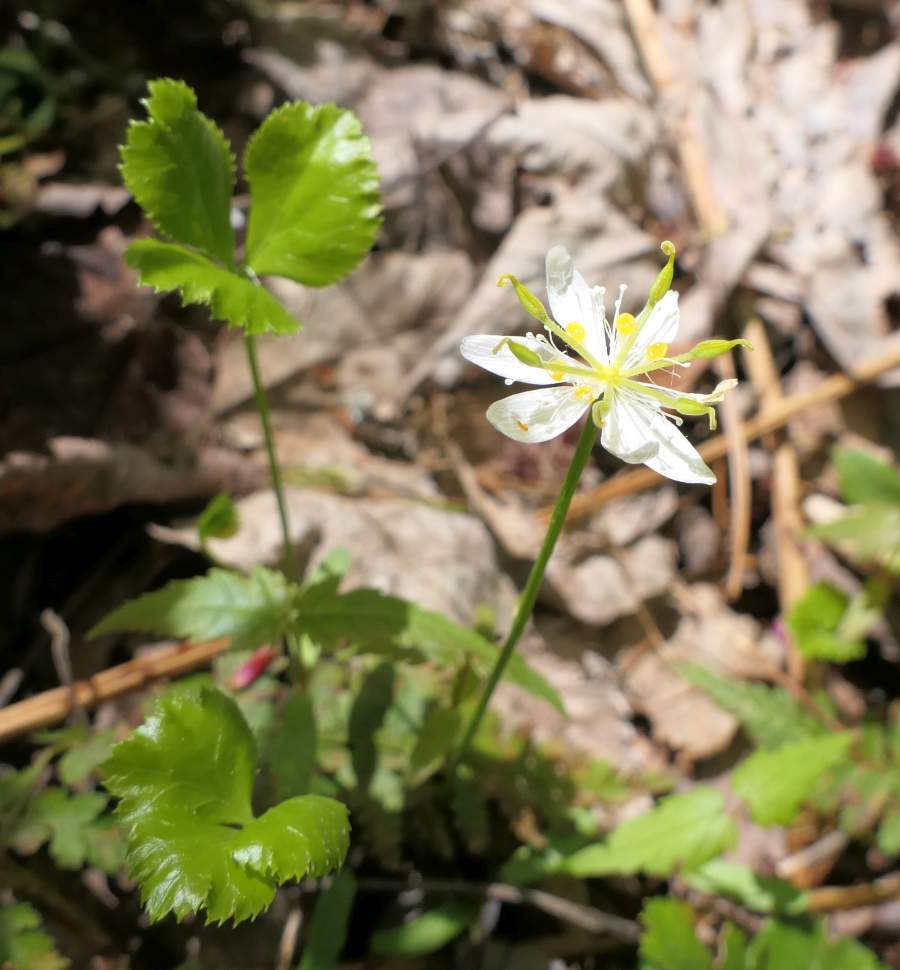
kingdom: Plantae
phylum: Tracheophyta
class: Magnoliopsida
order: Ranunculales
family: Ranunculaceae
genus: Coptis
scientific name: Coptis trifolia
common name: Canker-root
